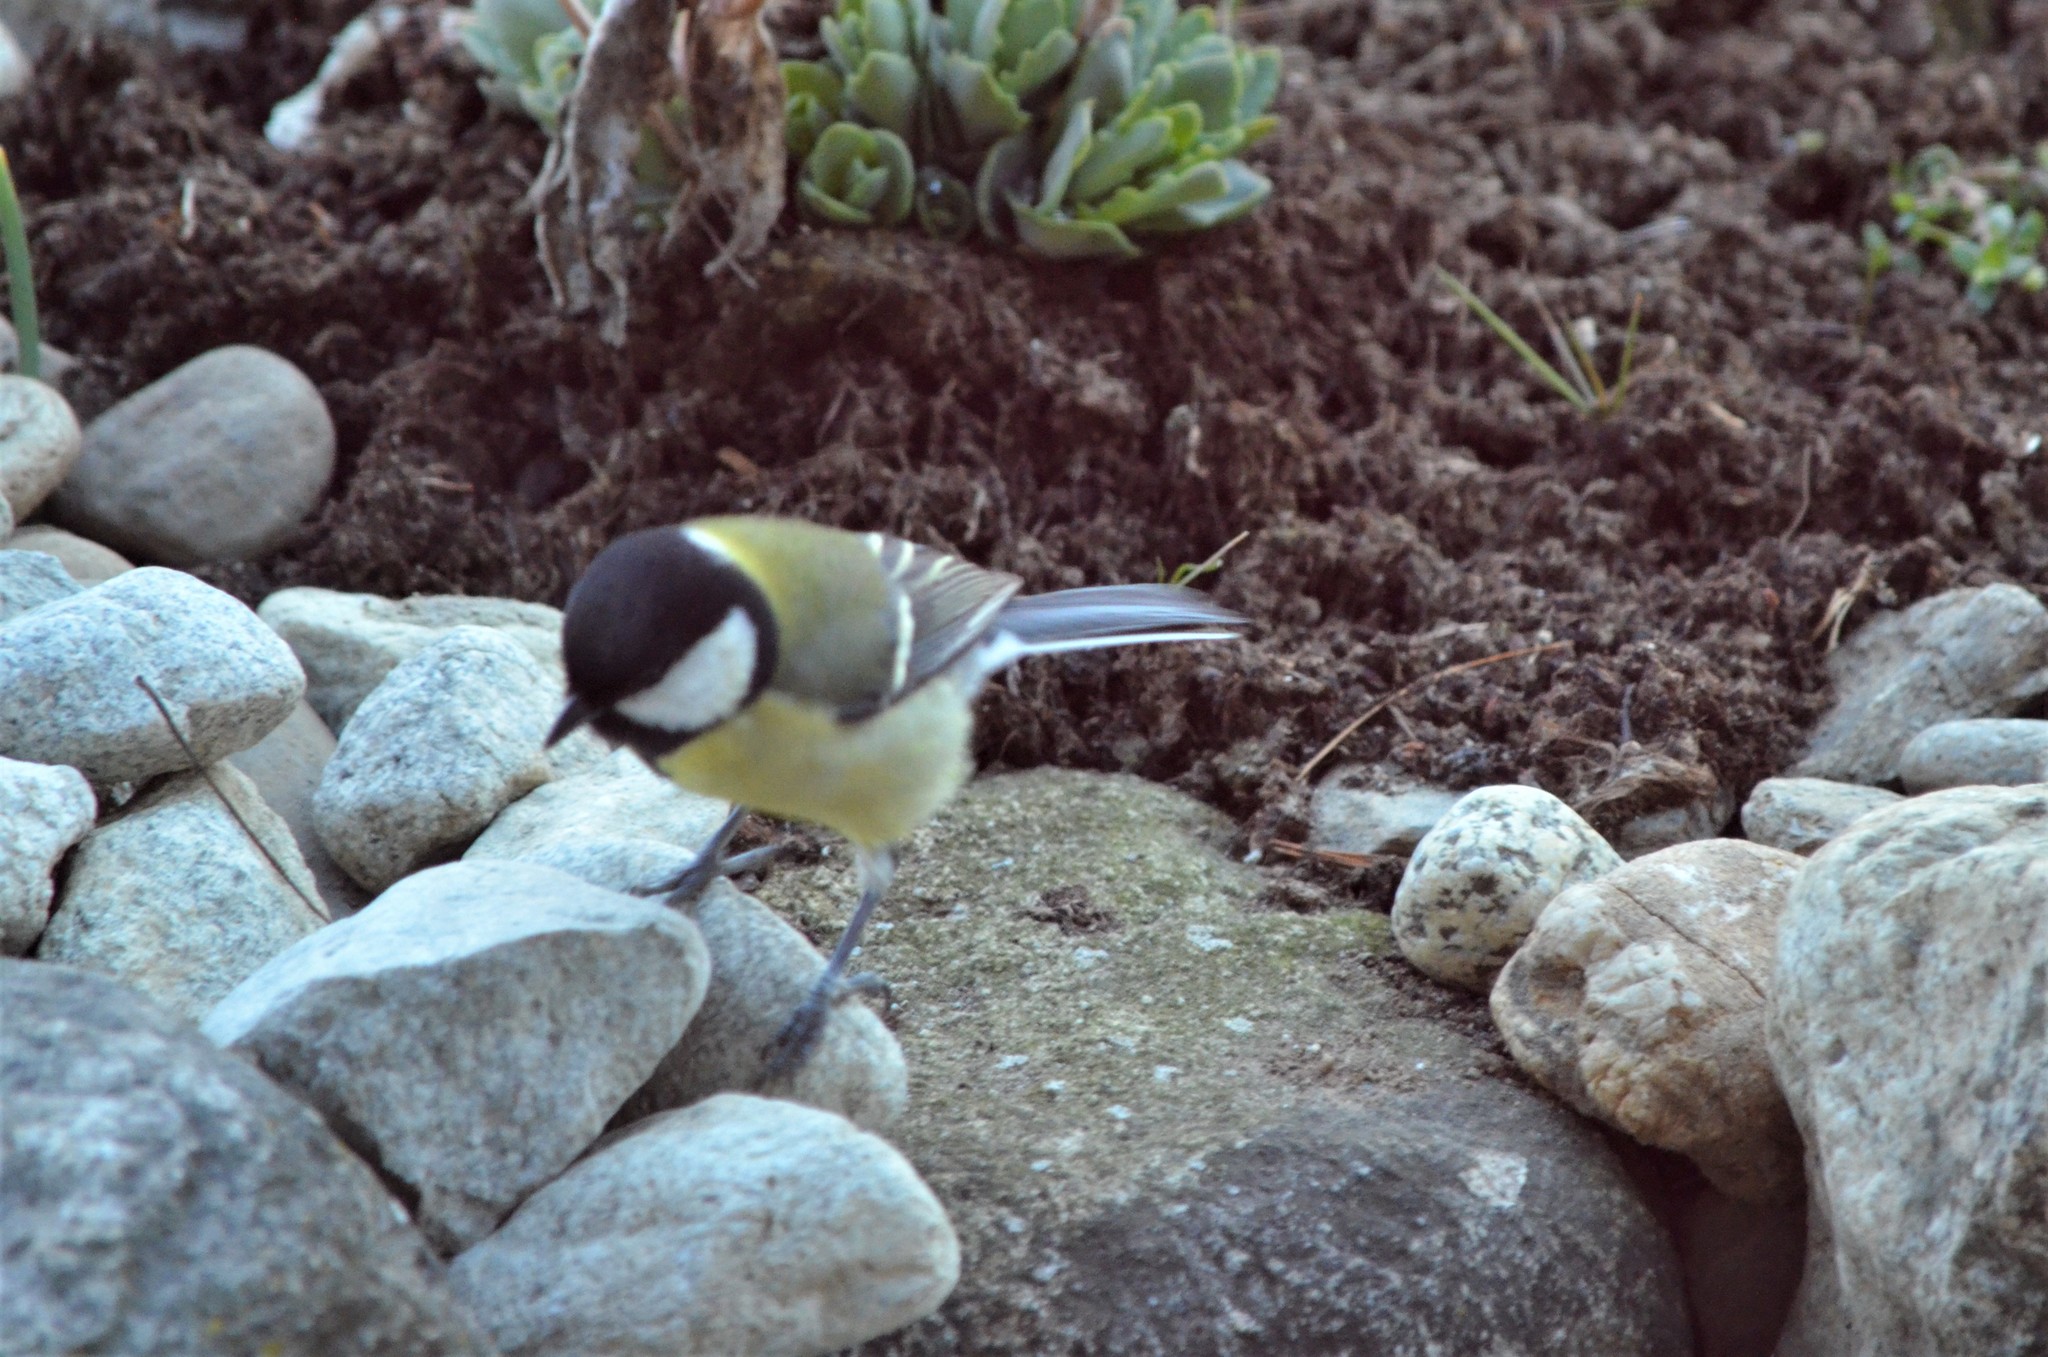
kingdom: Animalia
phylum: Chordata
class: Aves
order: Passeriformes
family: Paridae
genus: Parus
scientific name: Parus major
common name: Great tit
